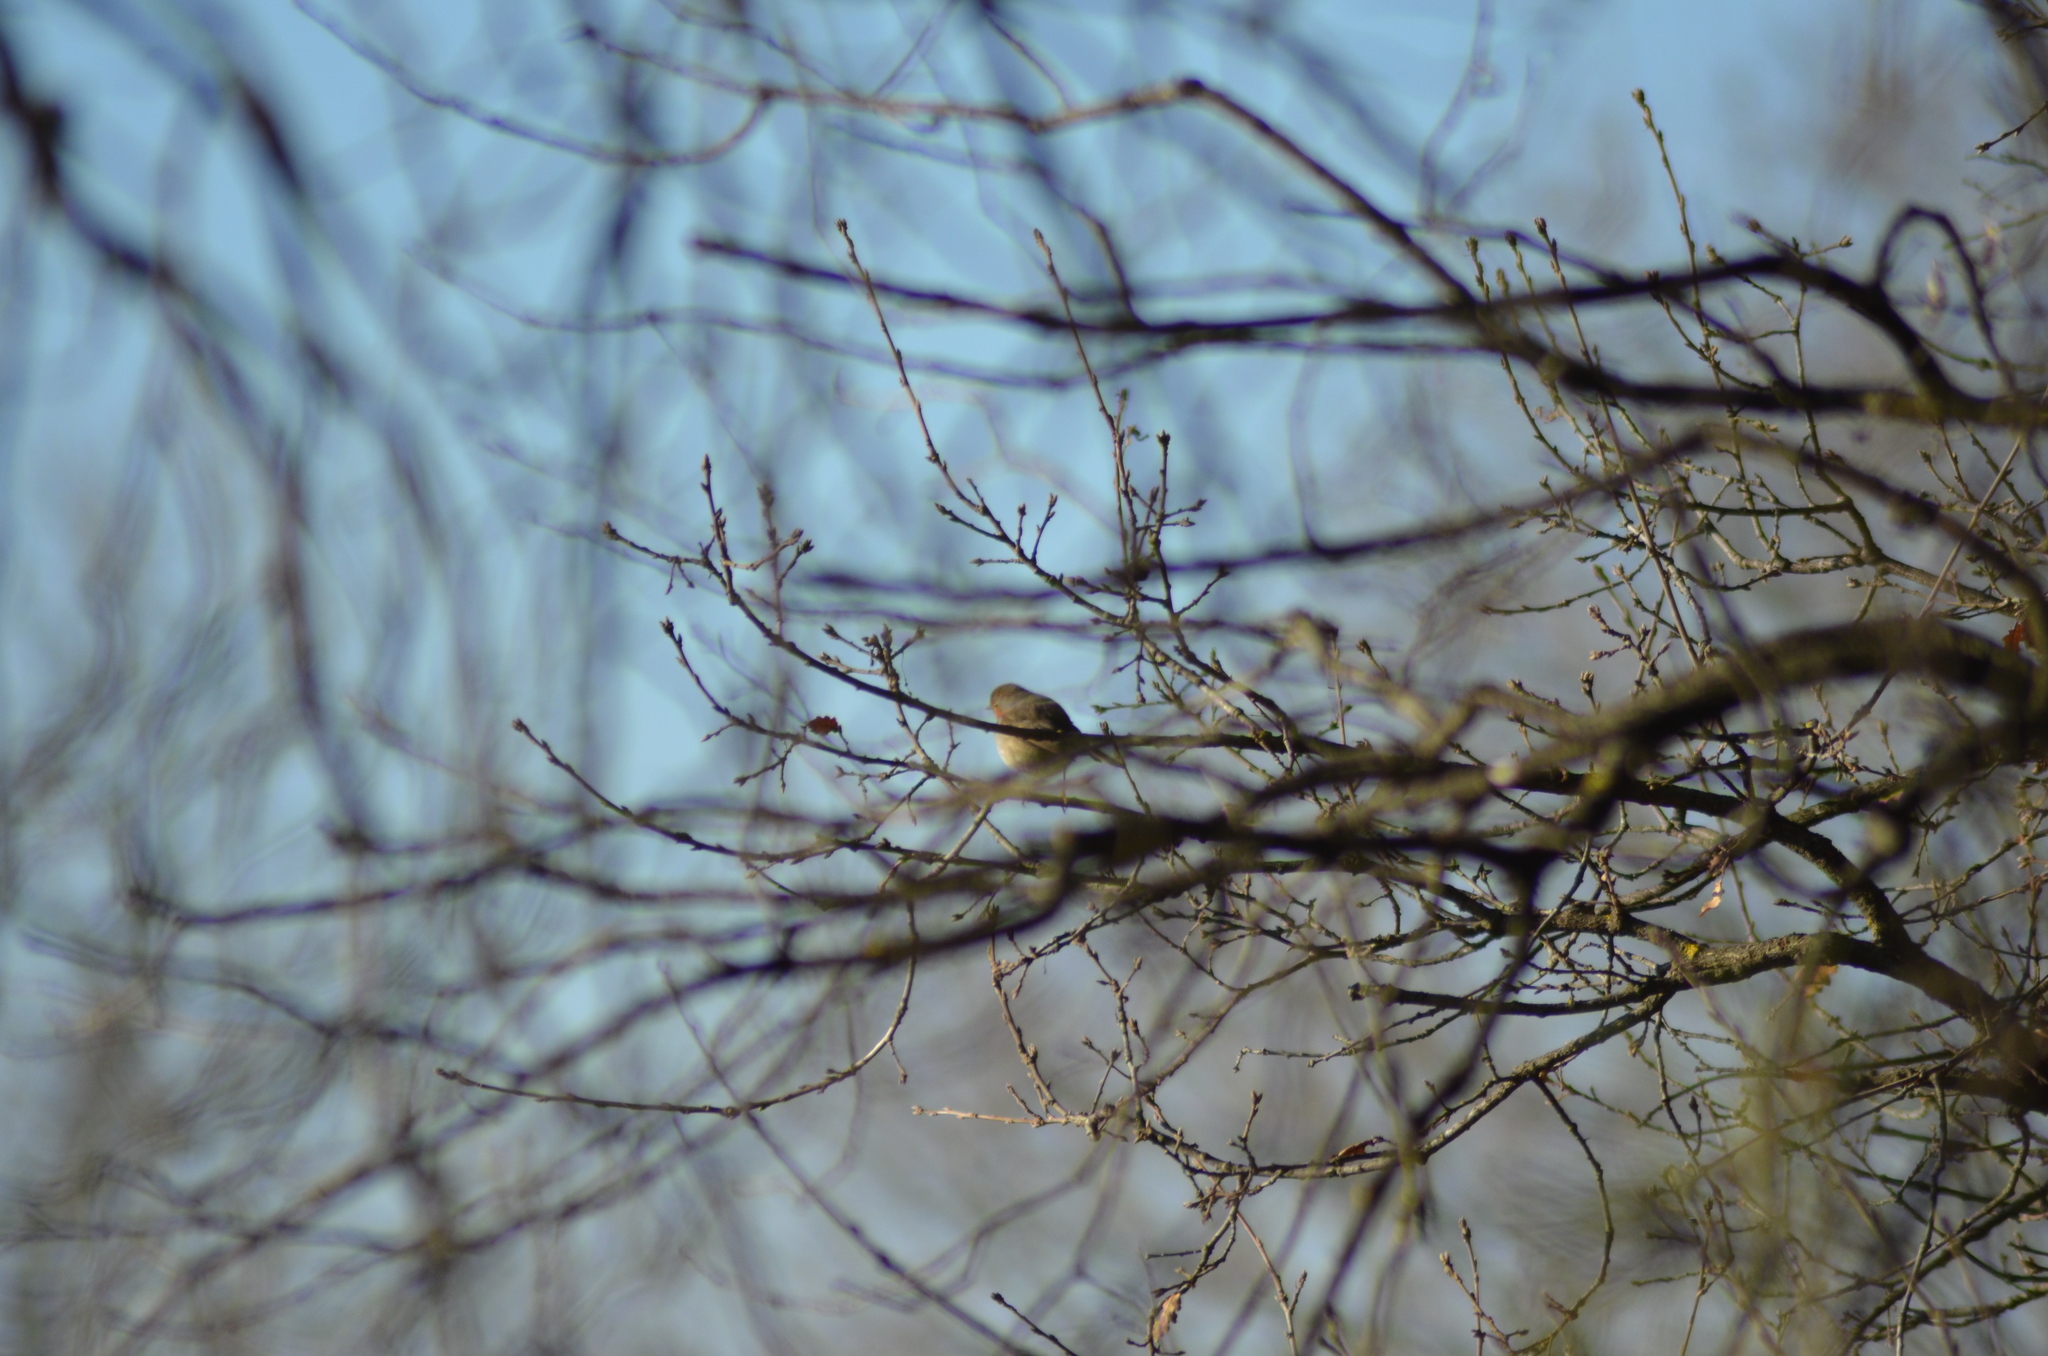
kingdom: Animalia
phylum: Chordata
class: Aves
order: Passeriformes
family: Muscicapidae
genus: Erithacus
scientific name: Erithacus rubecula
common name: European robin
